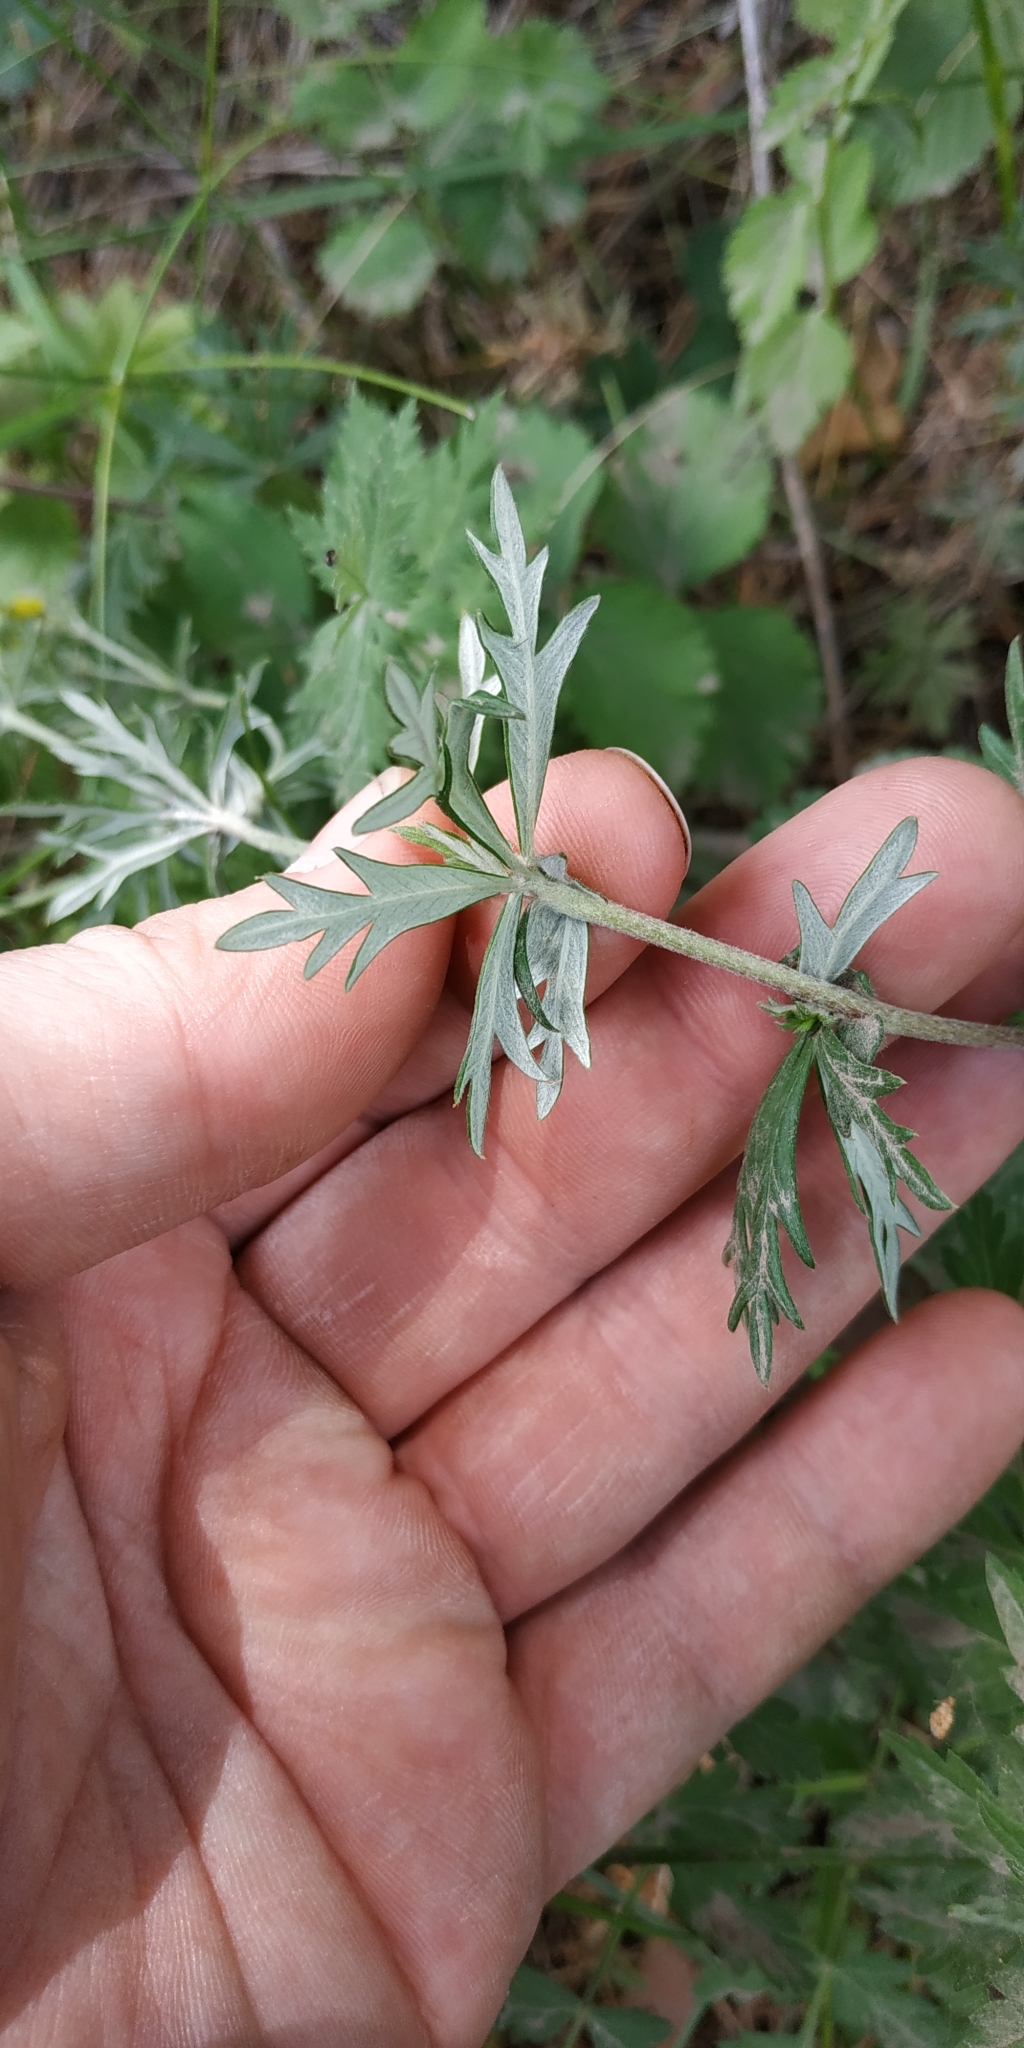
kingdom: Plantae
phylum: Tracheophyta
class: Magnoliopsida
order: Rosales
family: Rosaceae
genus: Potentilla
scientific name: Potentilla argentea
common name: Hoary cinquefoil
